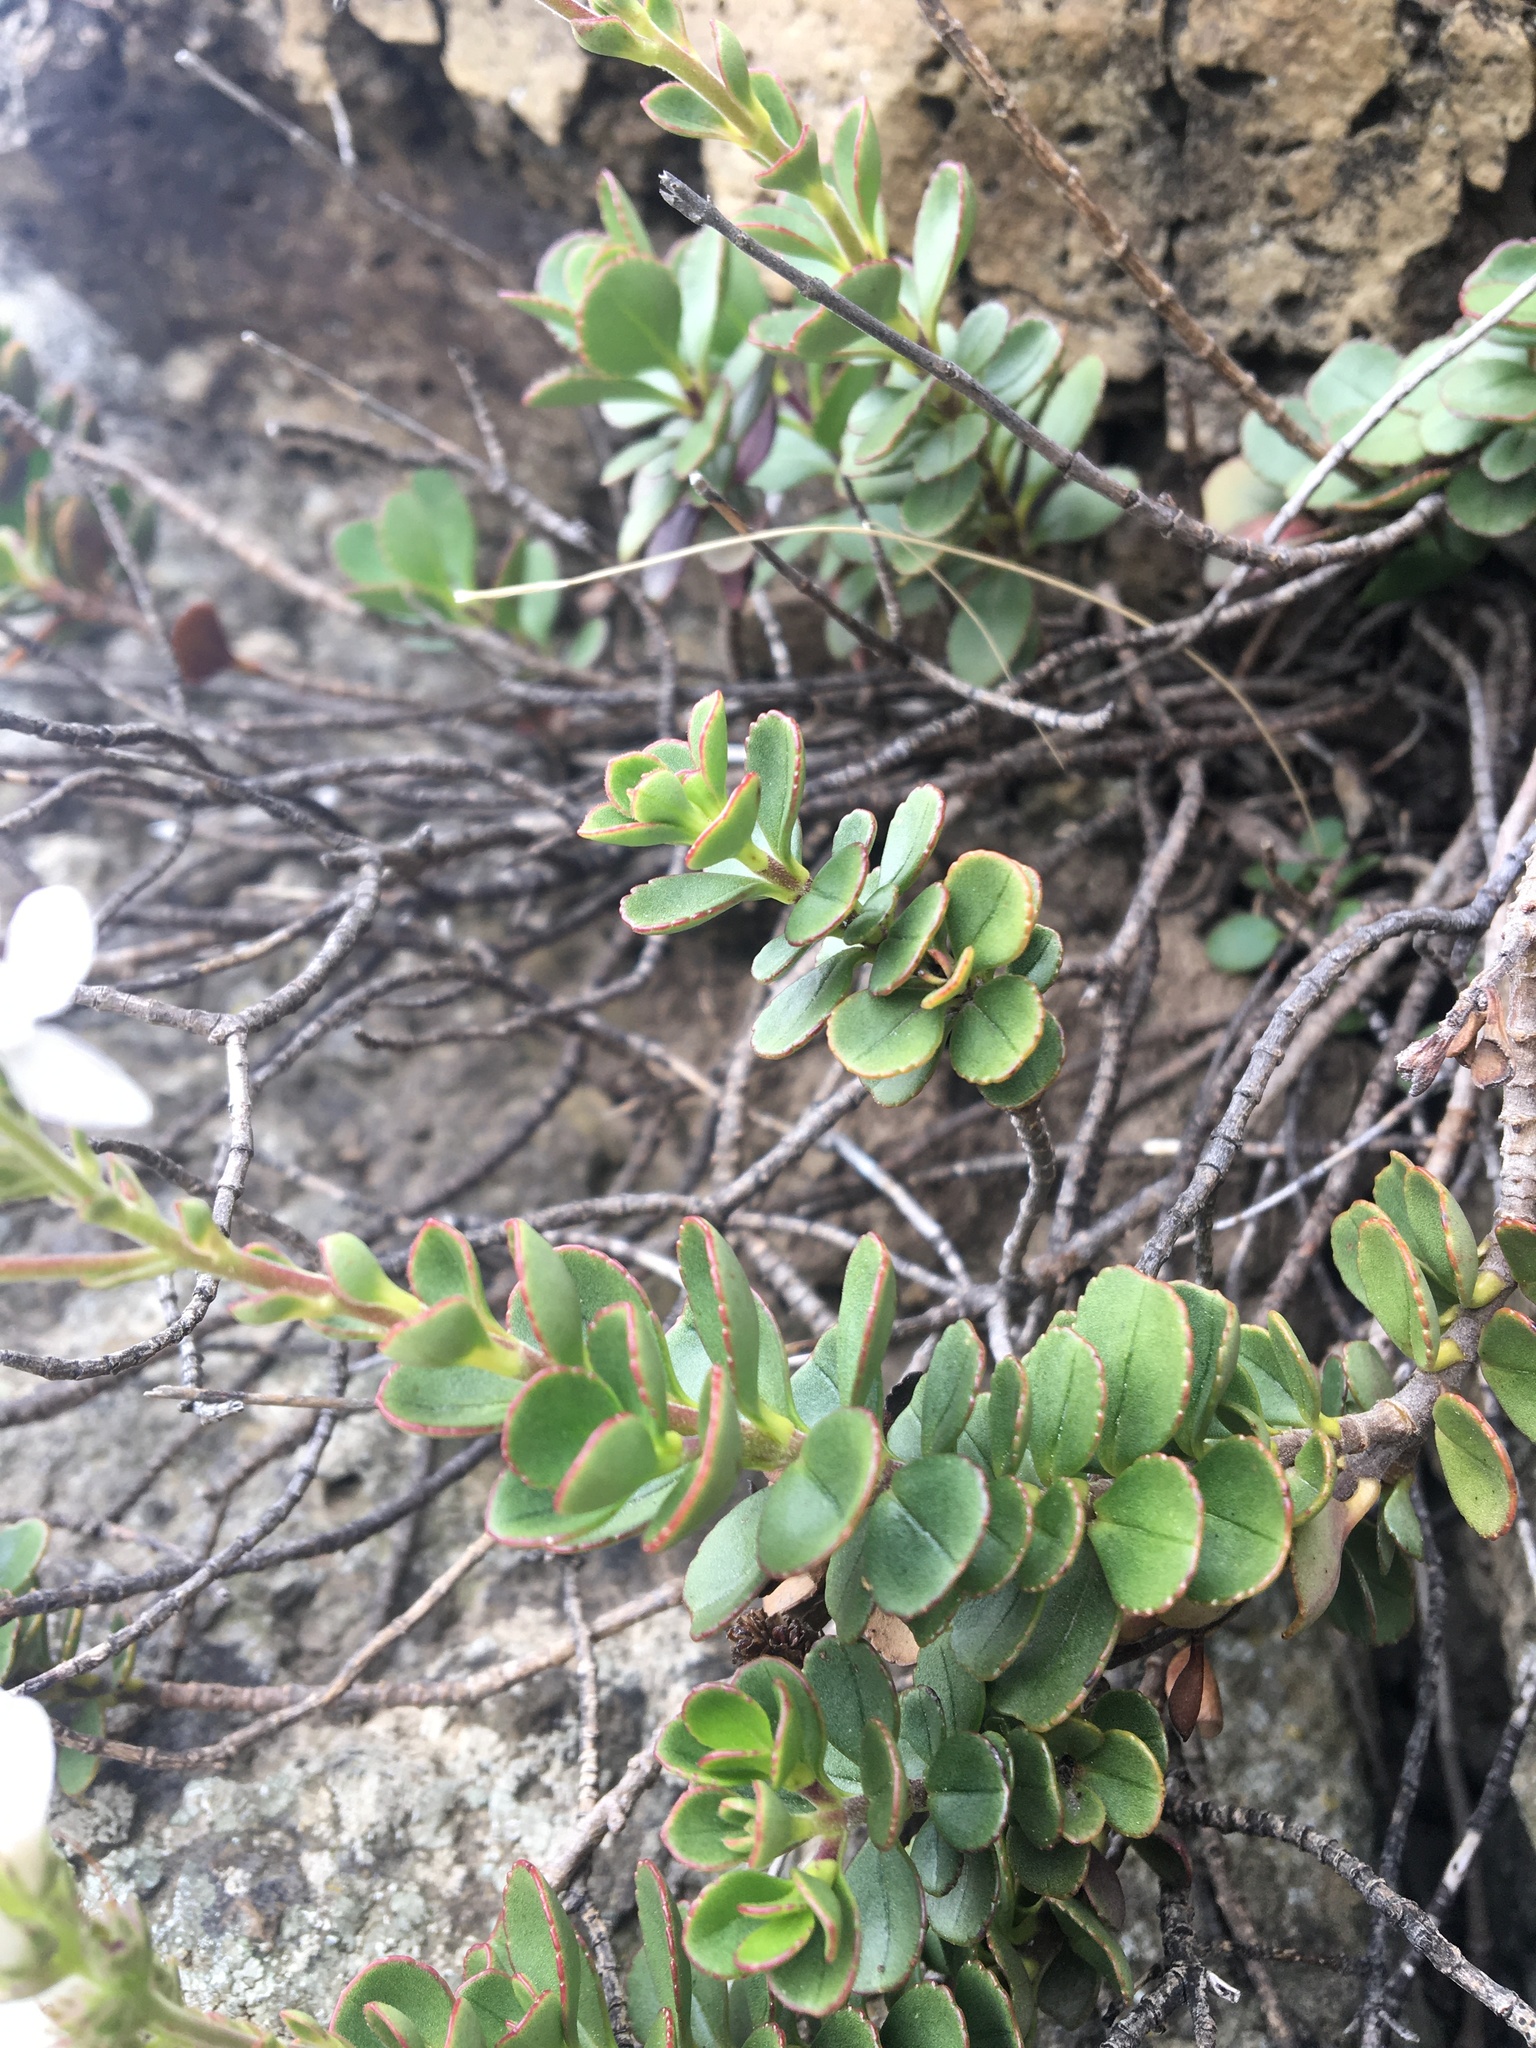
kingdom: Plantae
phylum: Tracheophyta
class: Magnoliopsida
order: Lamiales
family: Plantaginaceae
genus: Veronica
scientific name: Veronica lavaudiana
